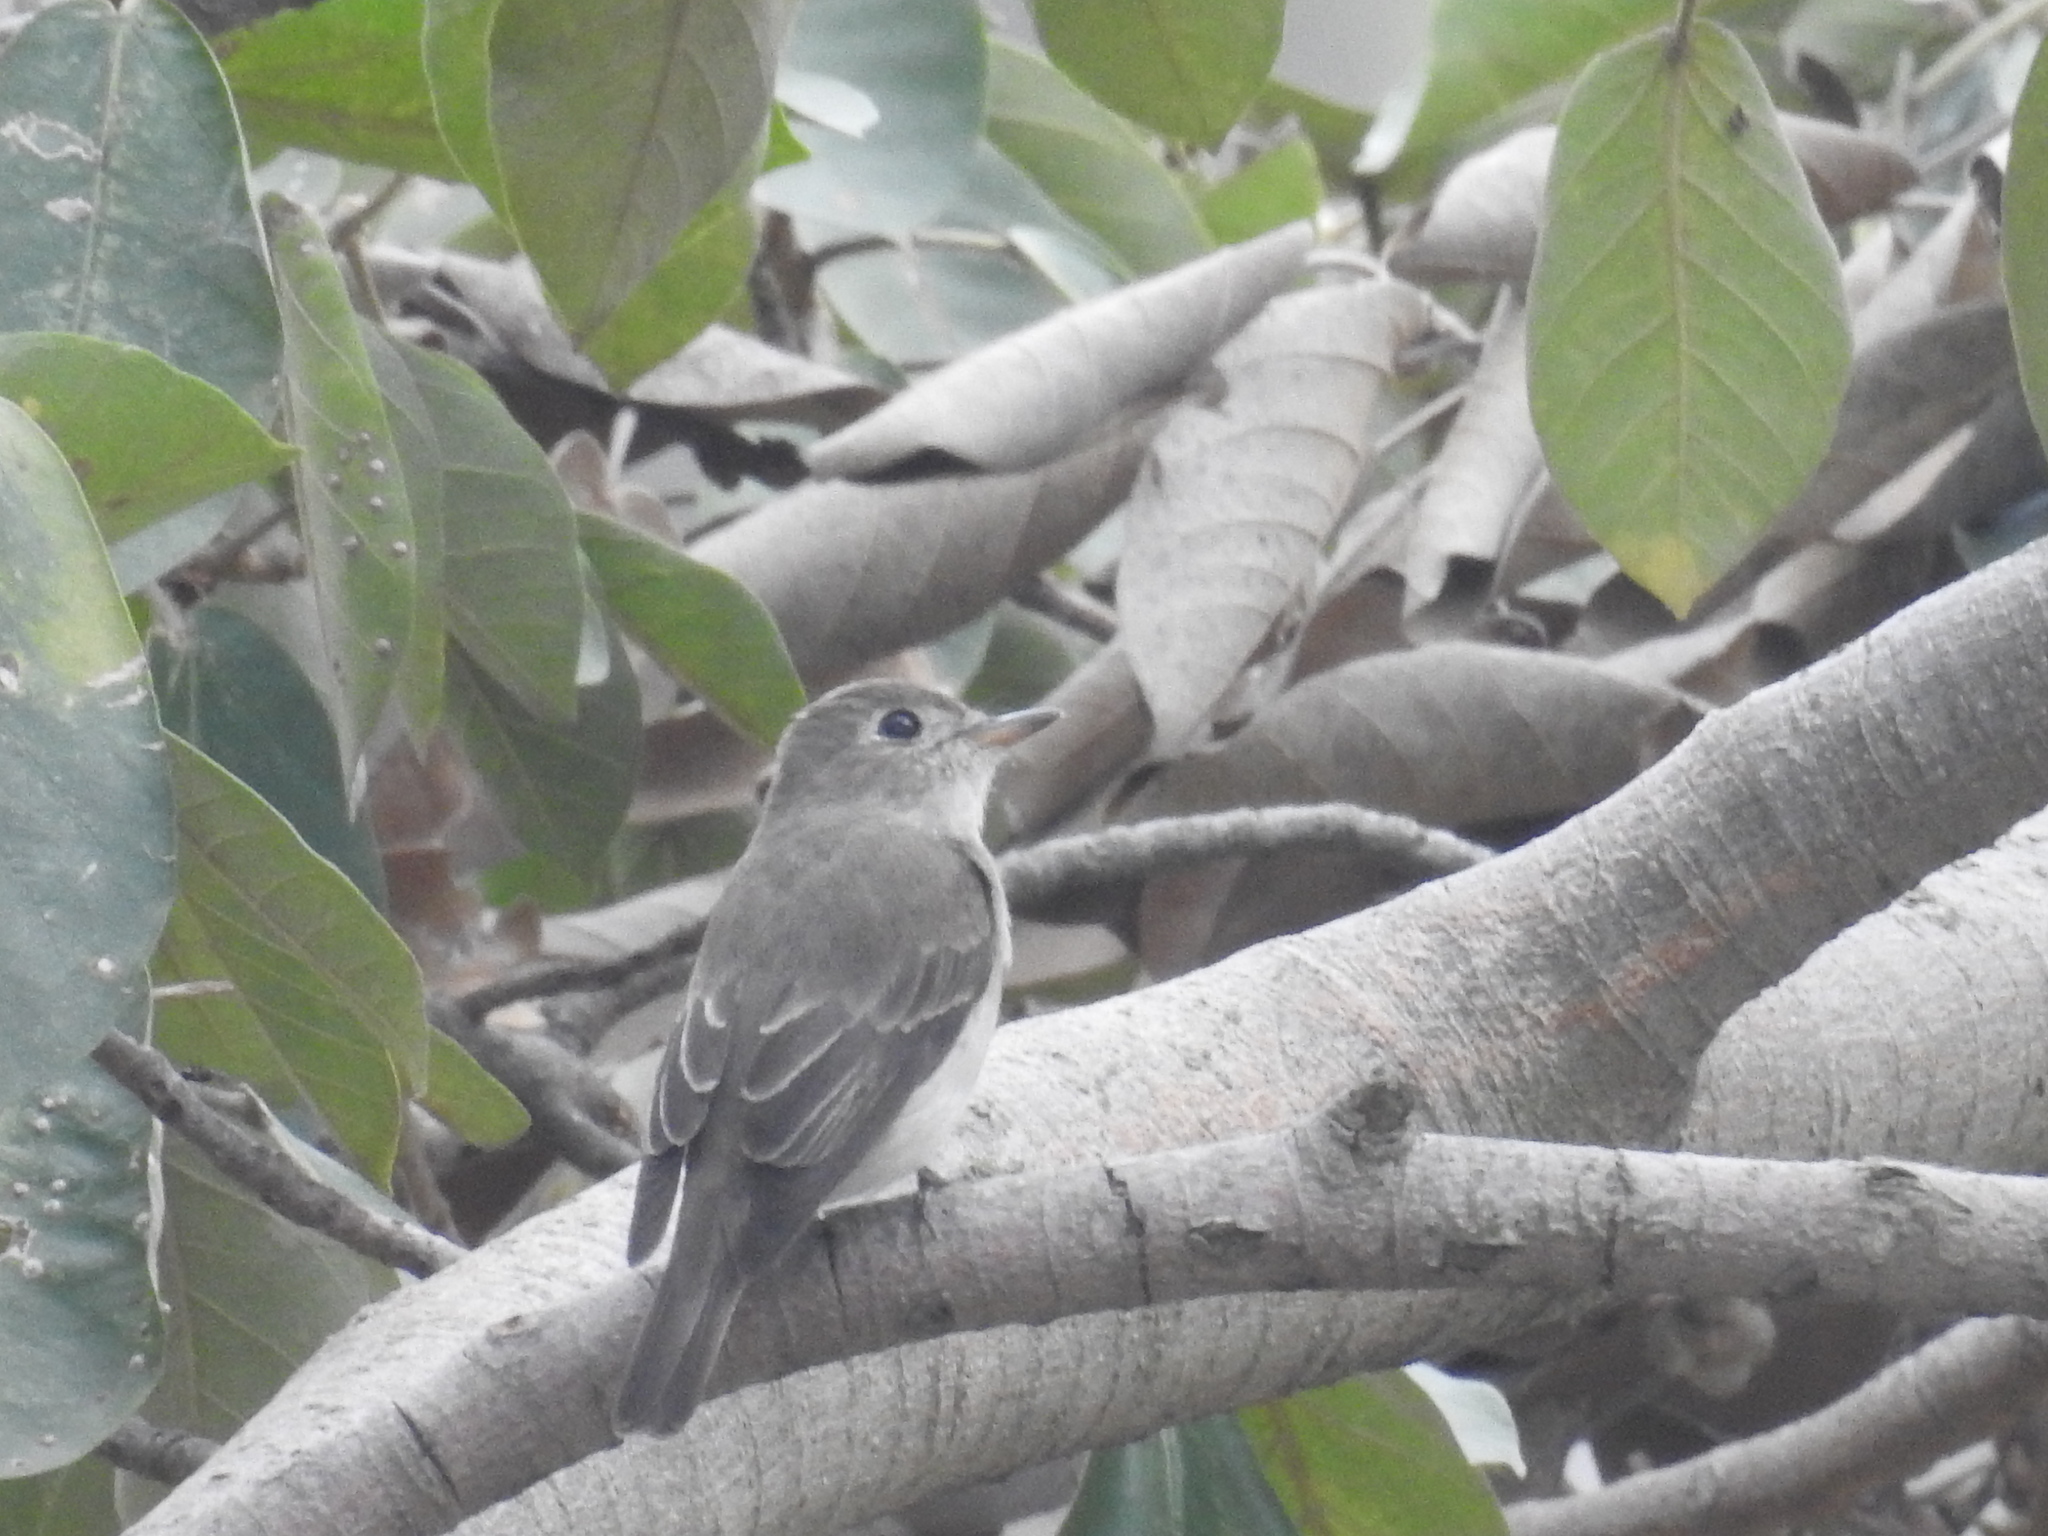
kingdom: Animalia
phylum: Chordata
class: Aves
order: Passeriformes
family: Muscicapidae
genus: Muscicapa
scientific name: Muscicapa latirostris
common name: Asian brown flycatcher
